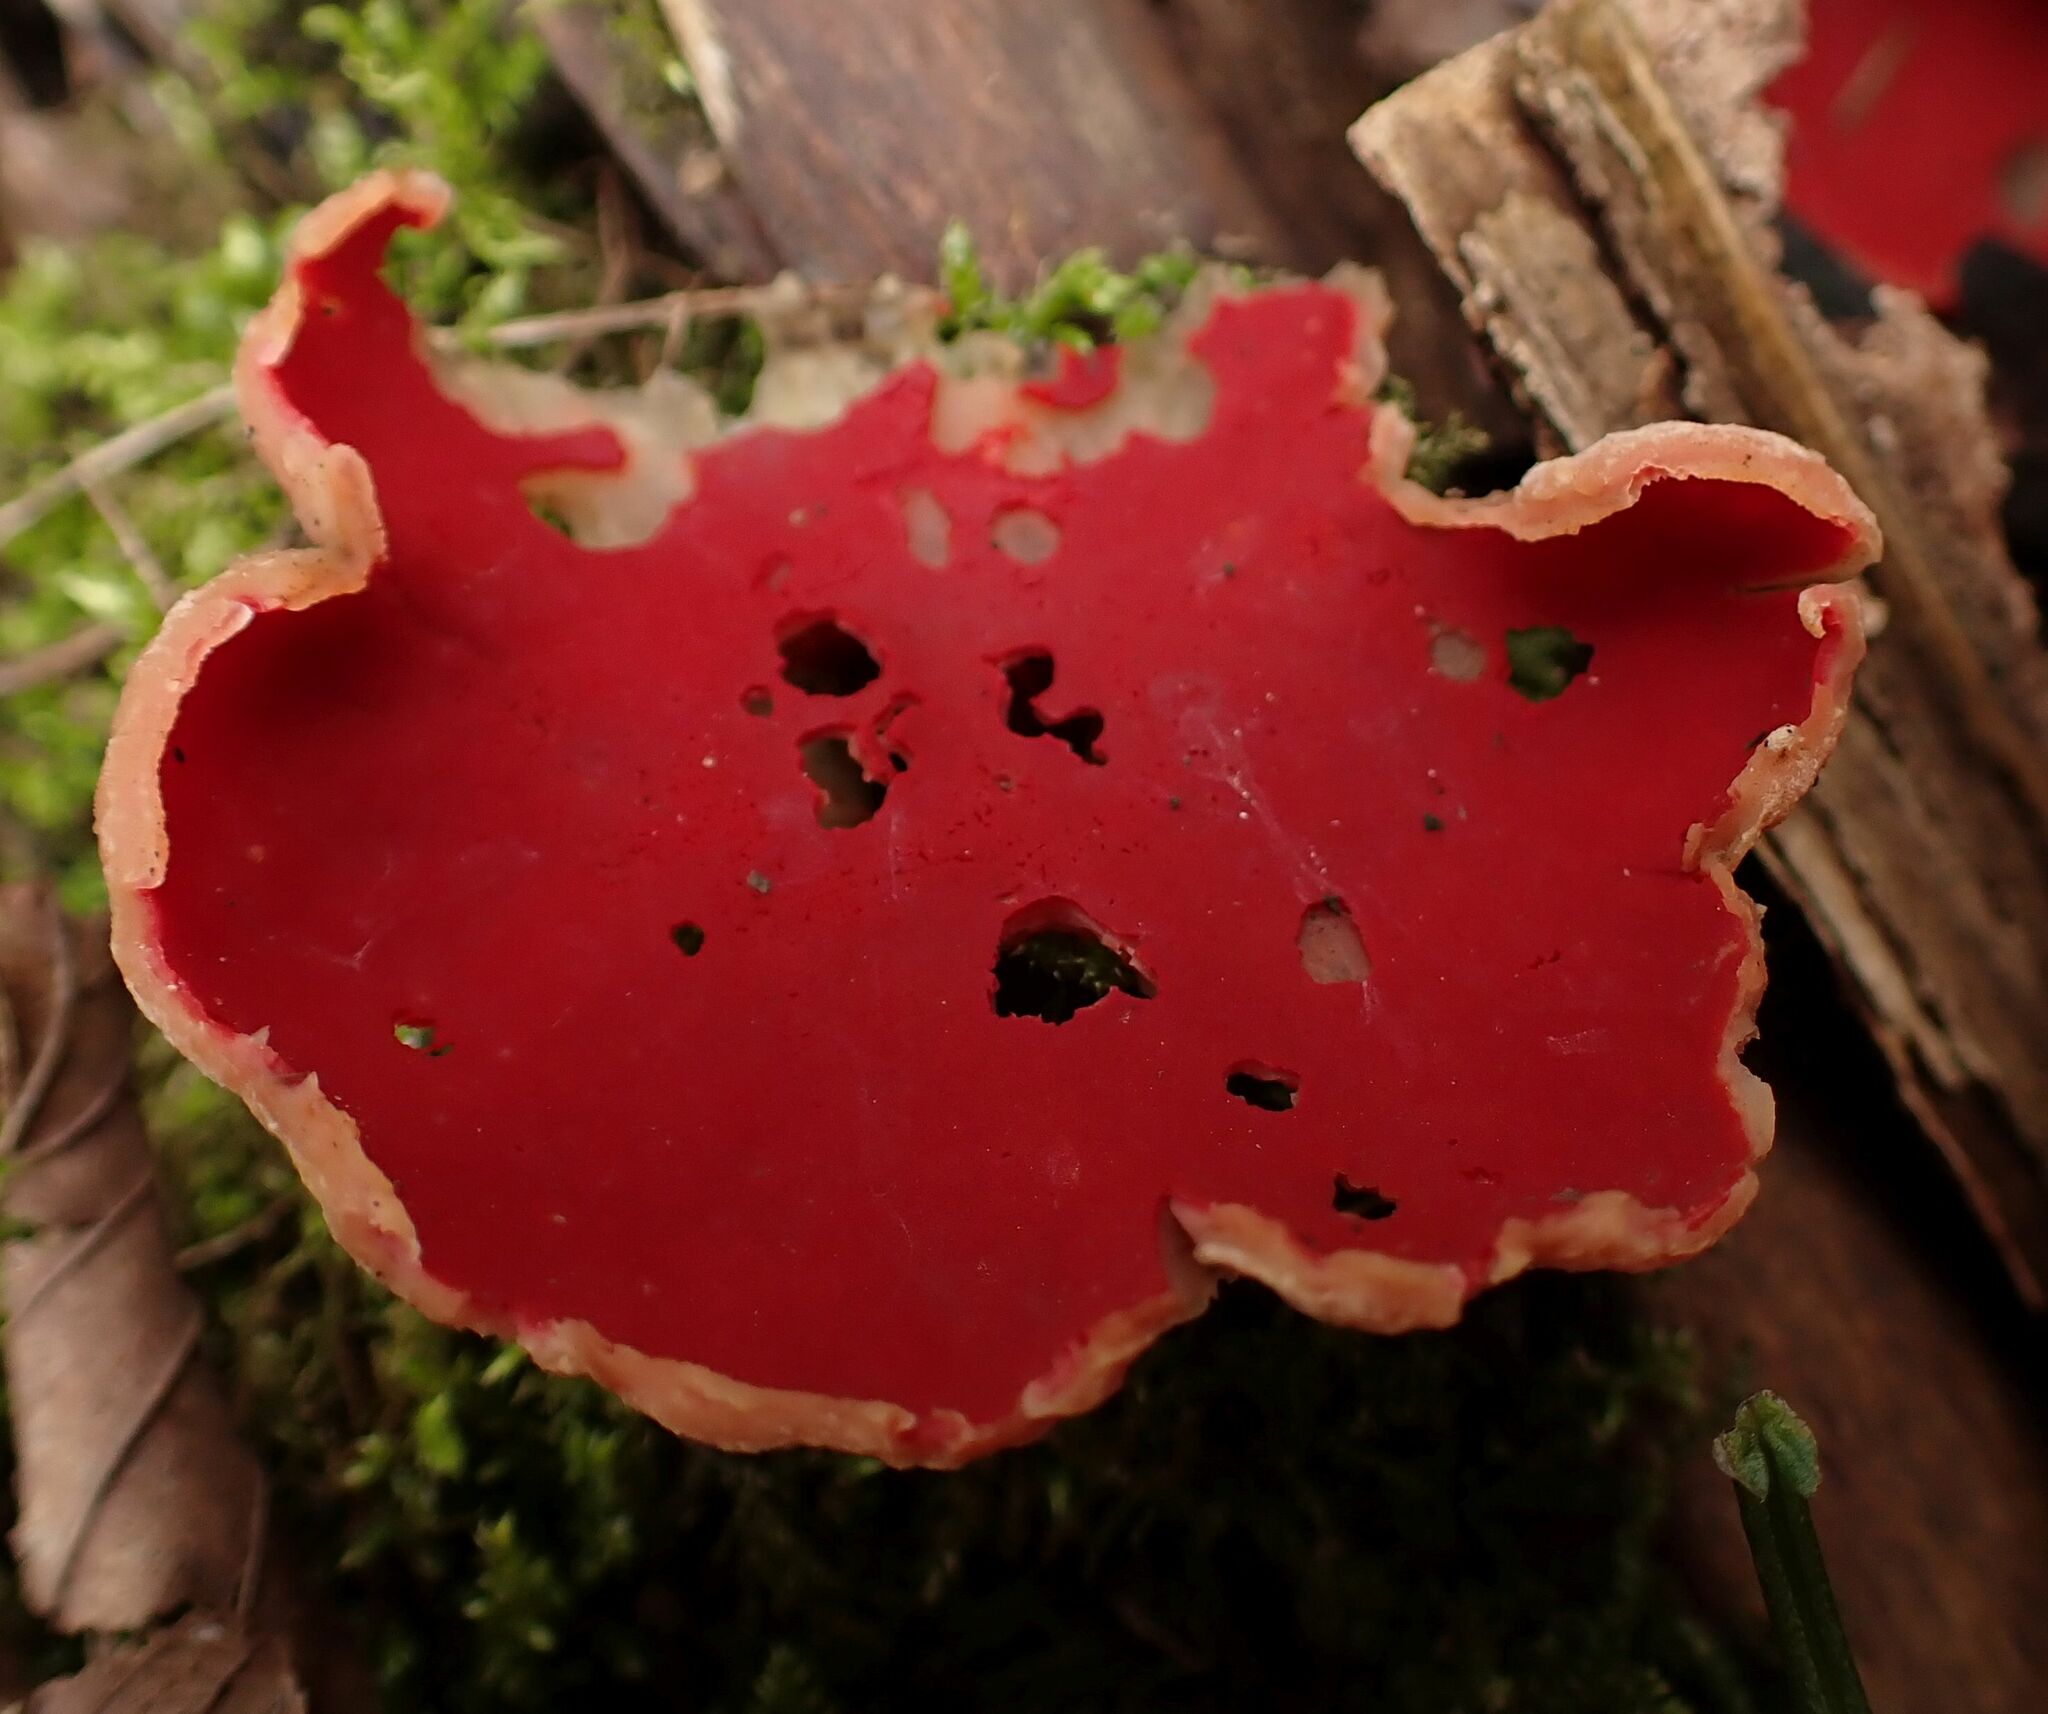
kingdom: Fungi
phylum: Ascomycota
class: Pezizomycetes
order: Pezizales
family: Sarcoscyphaceae
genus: Sarcoscypha
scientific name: Sarcoscypha
